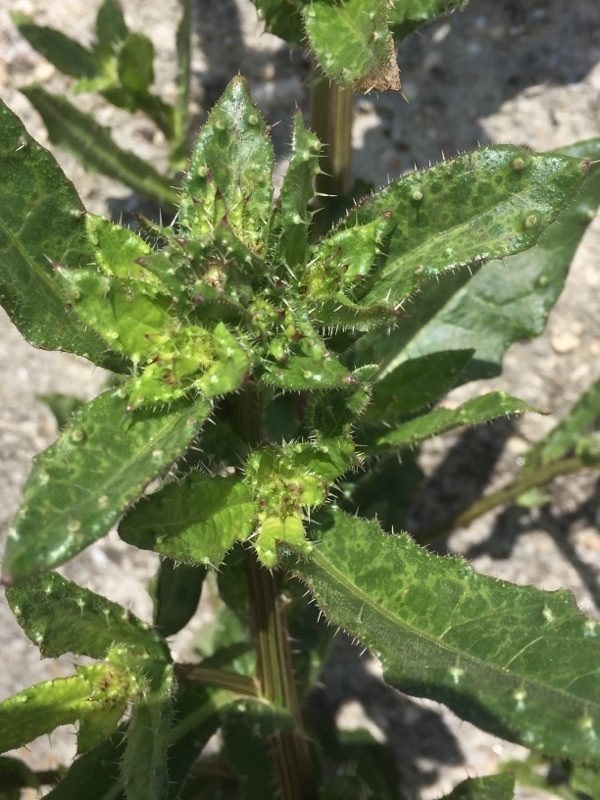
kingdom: Plantae
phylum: Tracheophyta
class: Magnoliopsida
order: Asterales
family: Asteraceae
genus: Helminthotheca
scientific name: Helminthotheca echioides
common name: Ox-tongue
